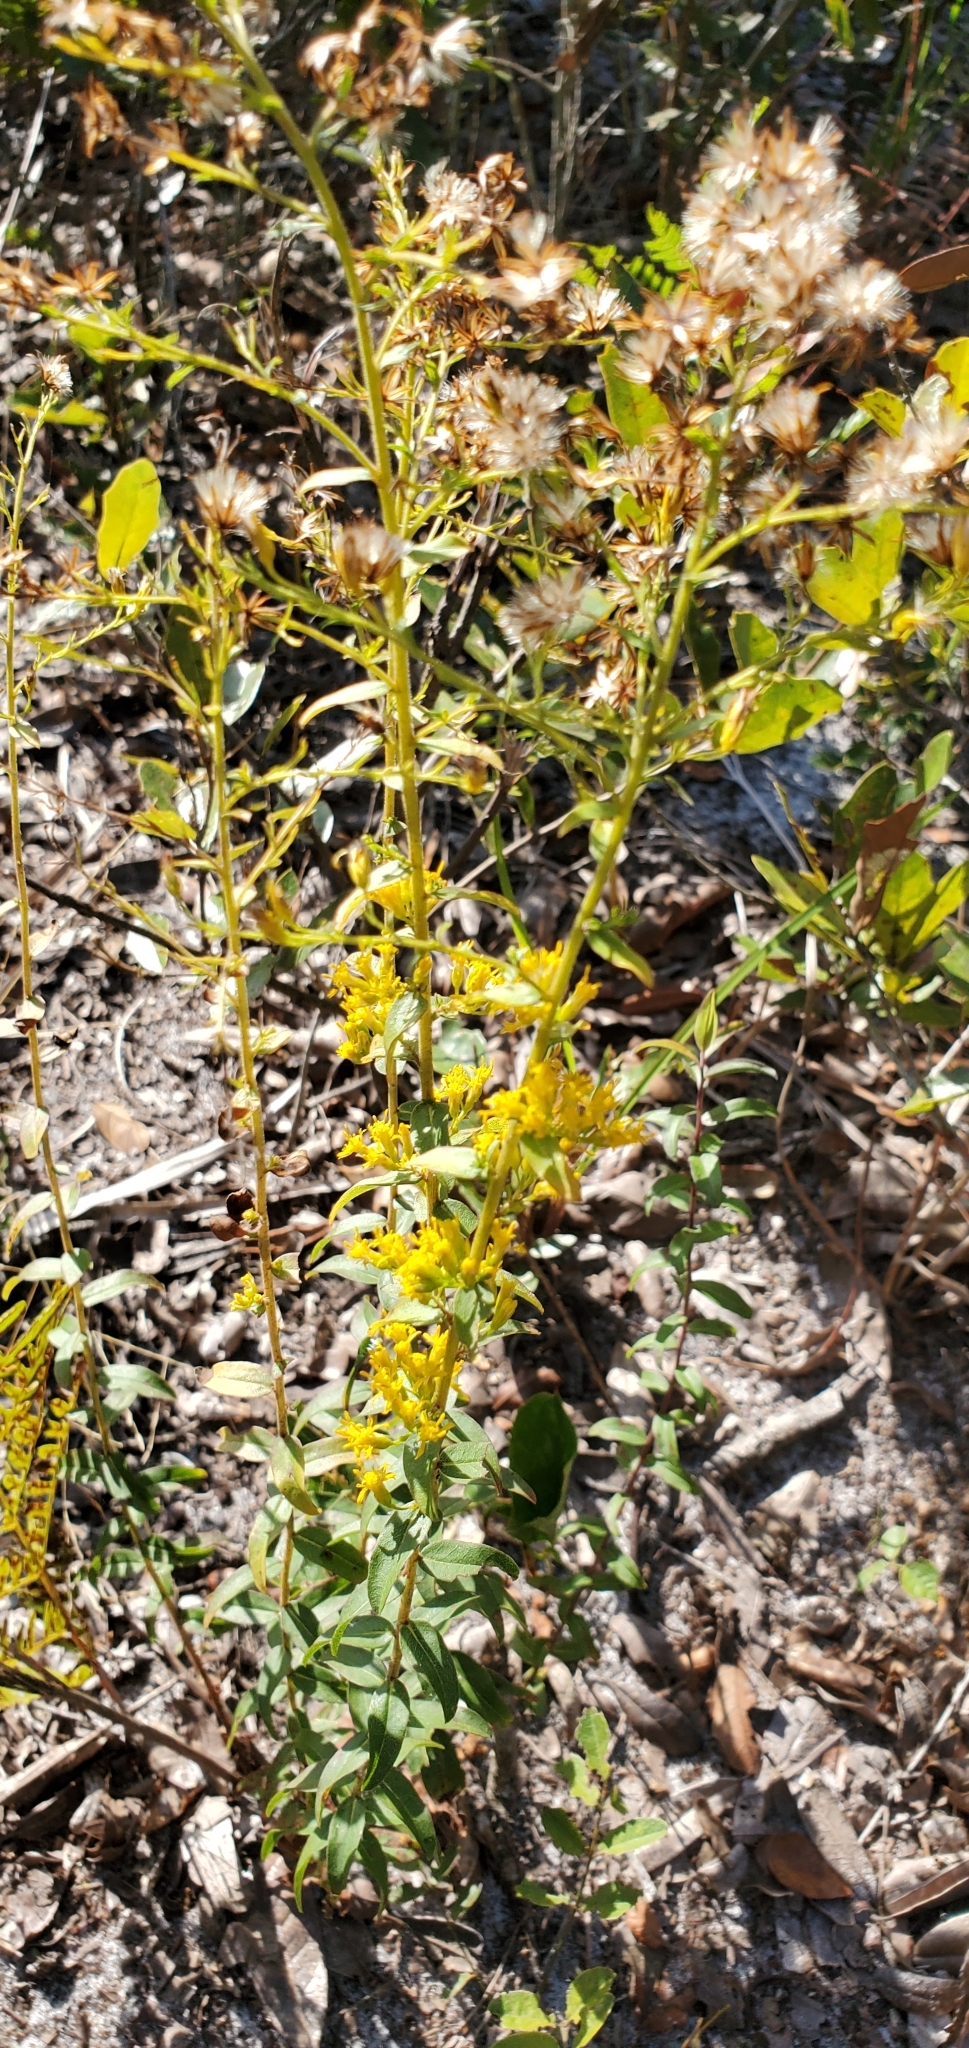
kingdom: Plantae
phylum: Tracheophyta
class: Magnoliopsida
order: Asterales
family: Asteraceae
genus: Solidago
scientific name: Solidago chapmanii
